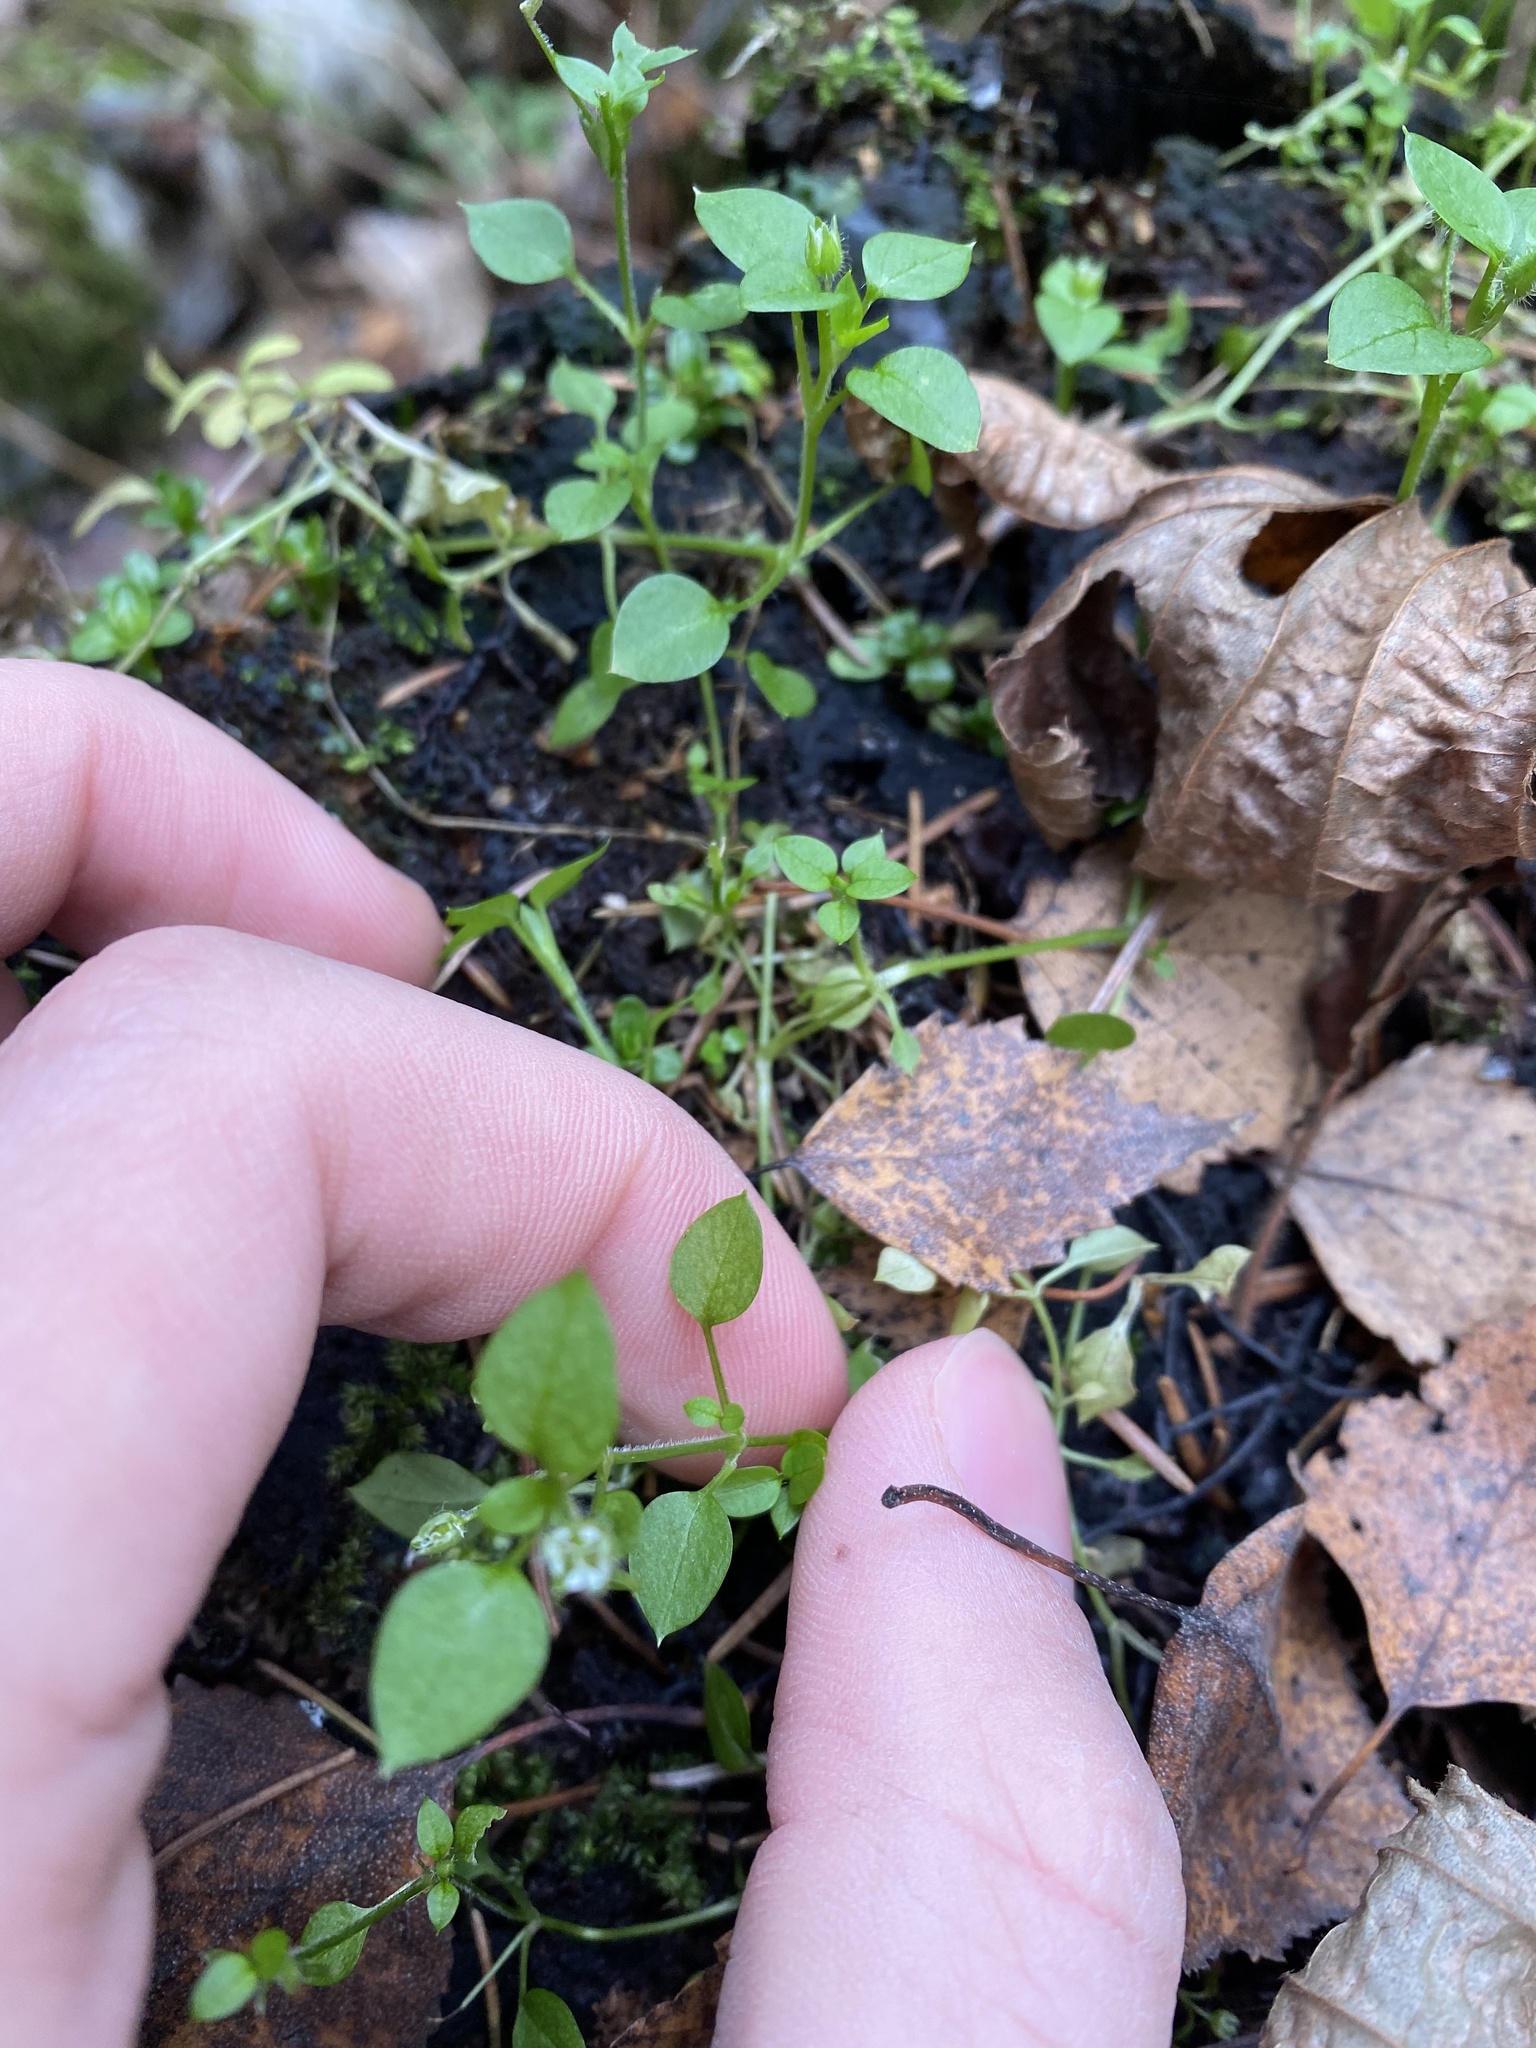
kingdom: Plantae
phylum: Tracheophyta
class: Magnoliopsida
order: Caryophyllales
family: Caryophyllaceae
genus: Stellaria
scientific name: Stellaria media
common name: Common chickweed
